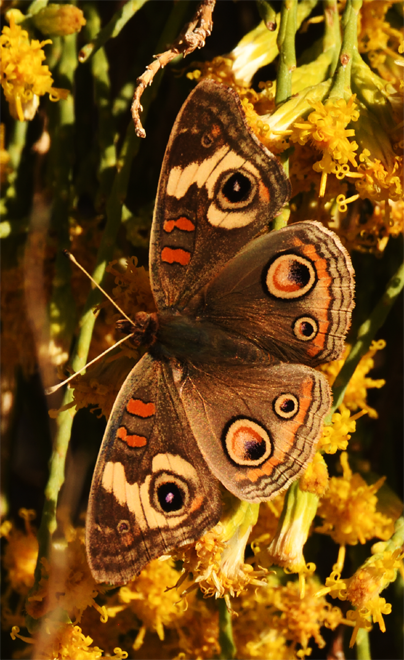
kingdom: Animalia
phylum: Arthropoda
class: Insecta
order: Lepidoptera
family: Nymphalidae
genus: Junonia
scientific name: Junonia grisea
